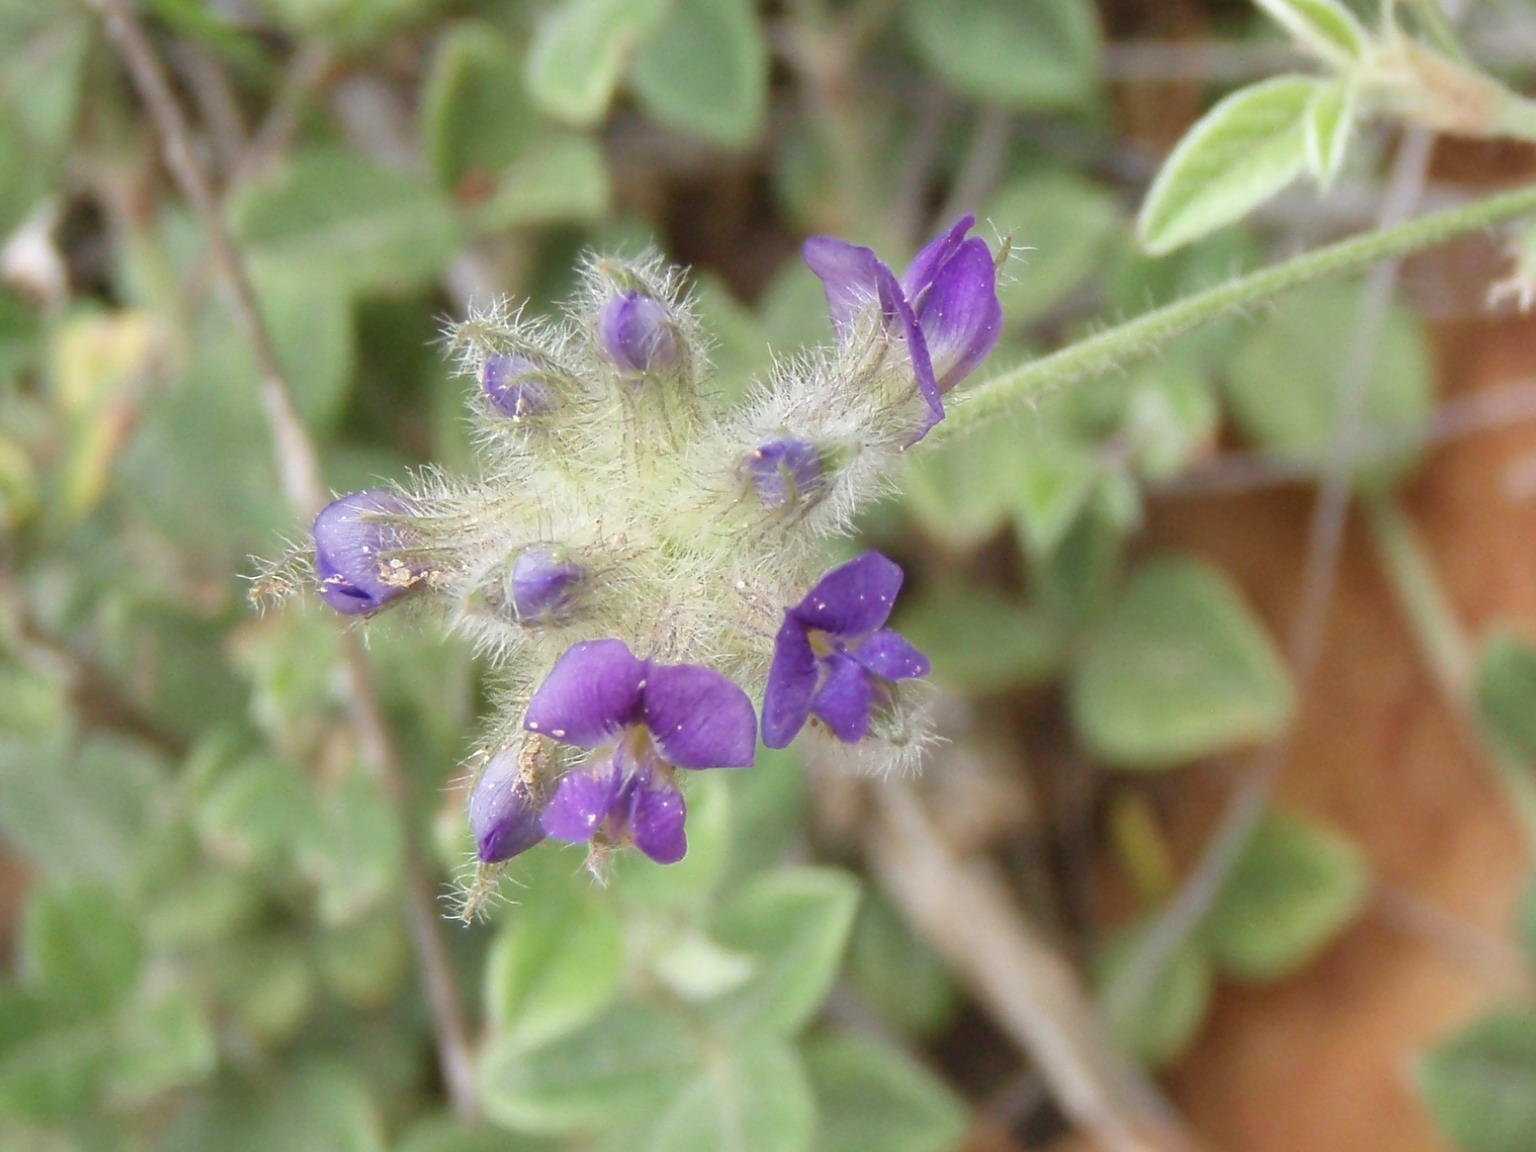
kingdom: Plantae
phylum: Tracheophyta
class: Magnoliopsida
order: Fabales
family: Fabaceae
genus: Psoralea
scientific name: Psoralea swartbergensis
